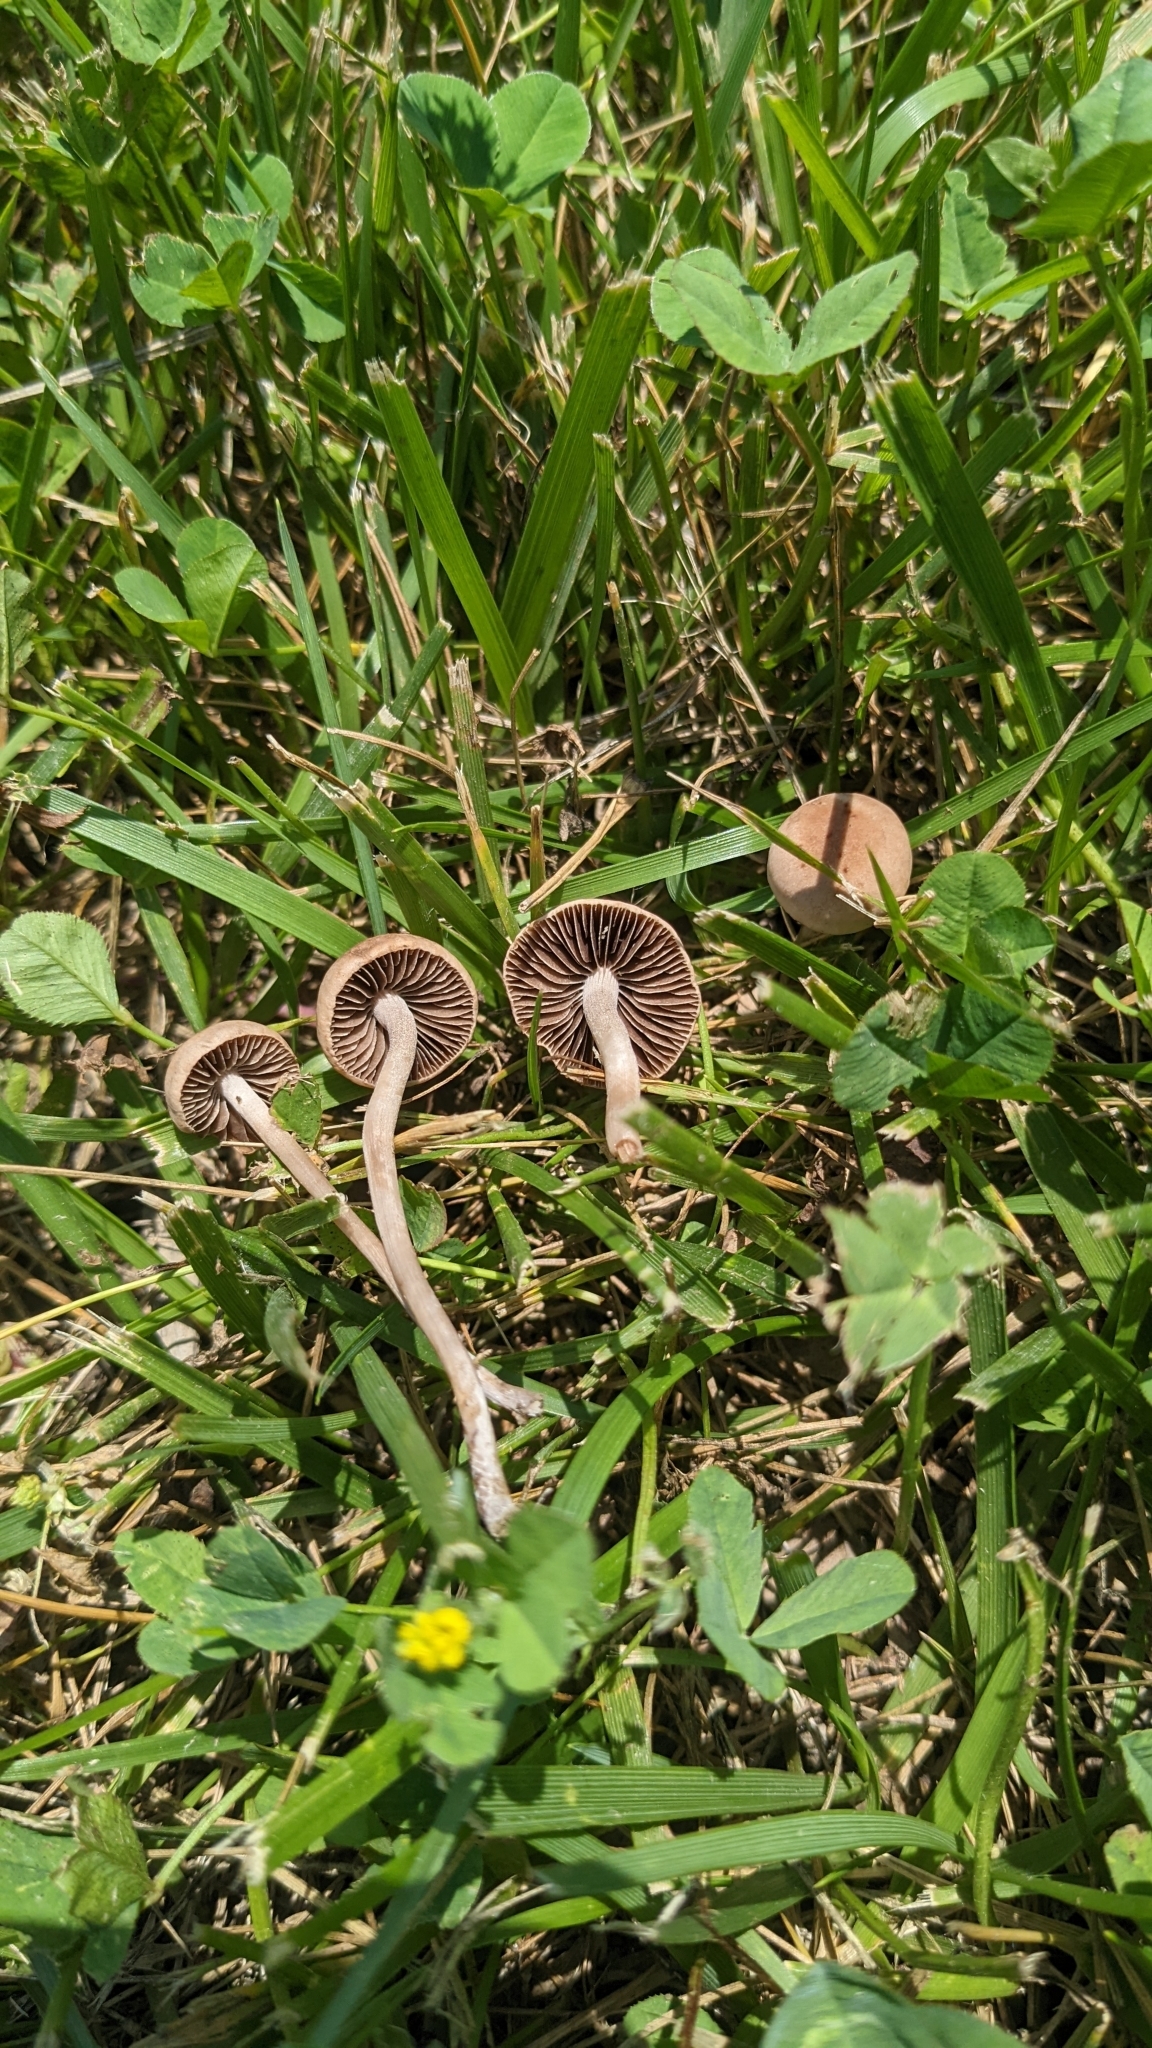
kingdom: Fungi
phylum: Basidiomycota
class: Agaricomycetes
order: Agaricales
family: Bolbitiaceae
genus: Panaeolina
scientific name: Panaeolina foenisecii
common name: Brown hay cap
